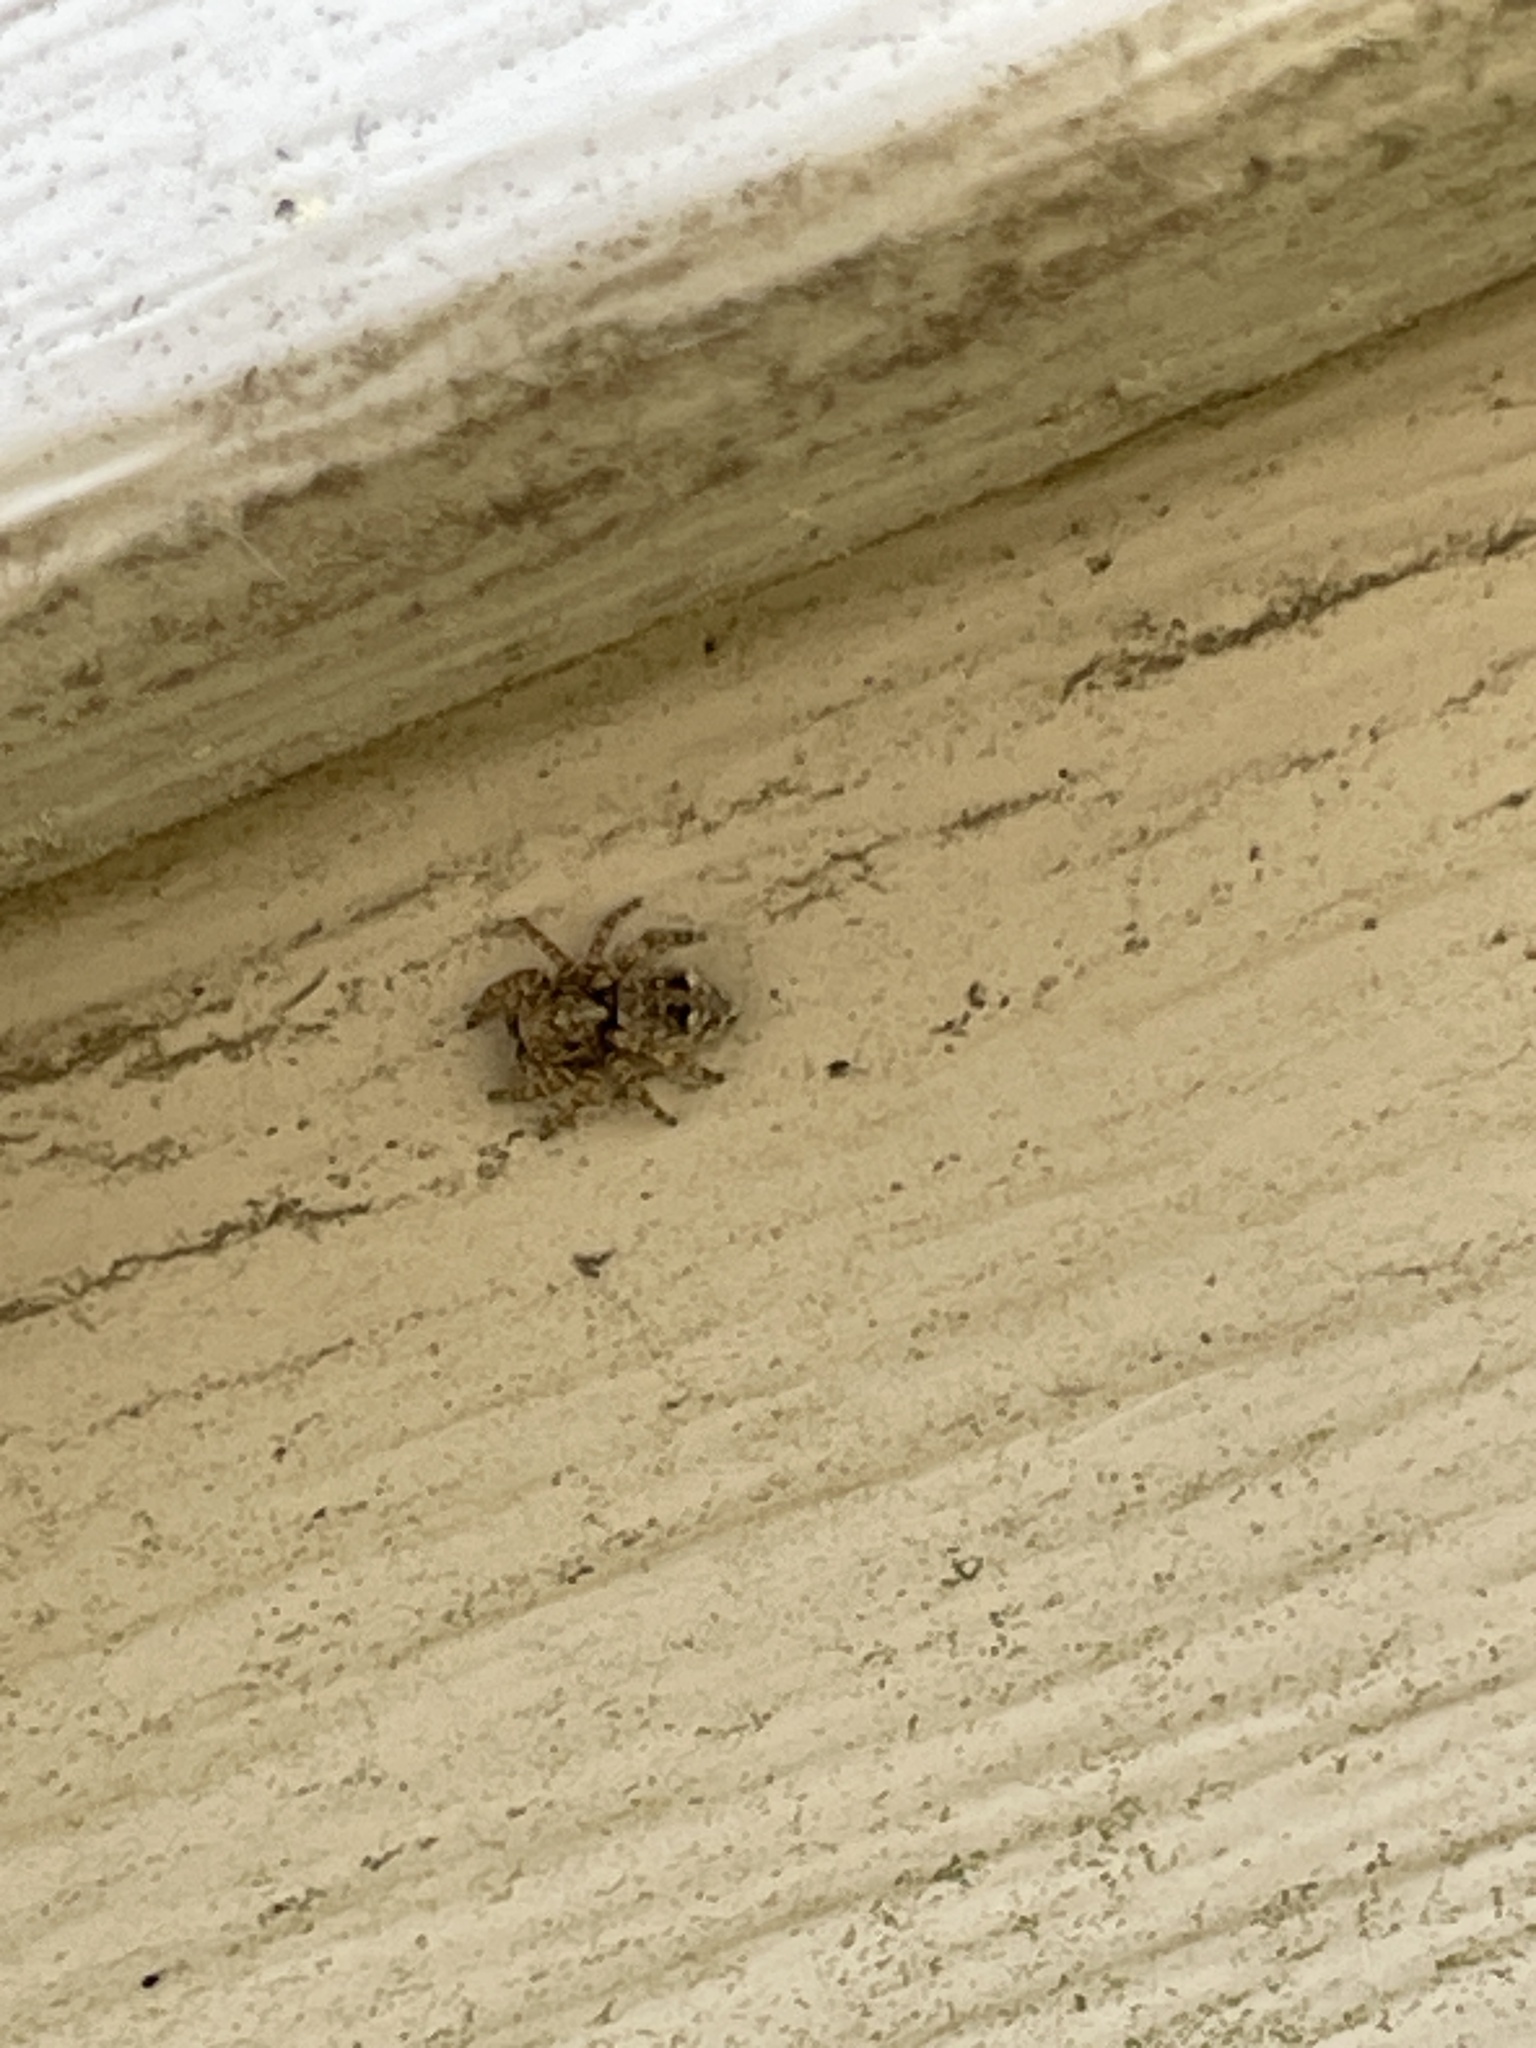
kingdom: Animalia
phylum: Arthropoda
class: Arachnida
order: Araneae
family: Salticidae
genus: Attulus
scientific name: Attulus fasciger
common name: Asiatic wall jumping spider
